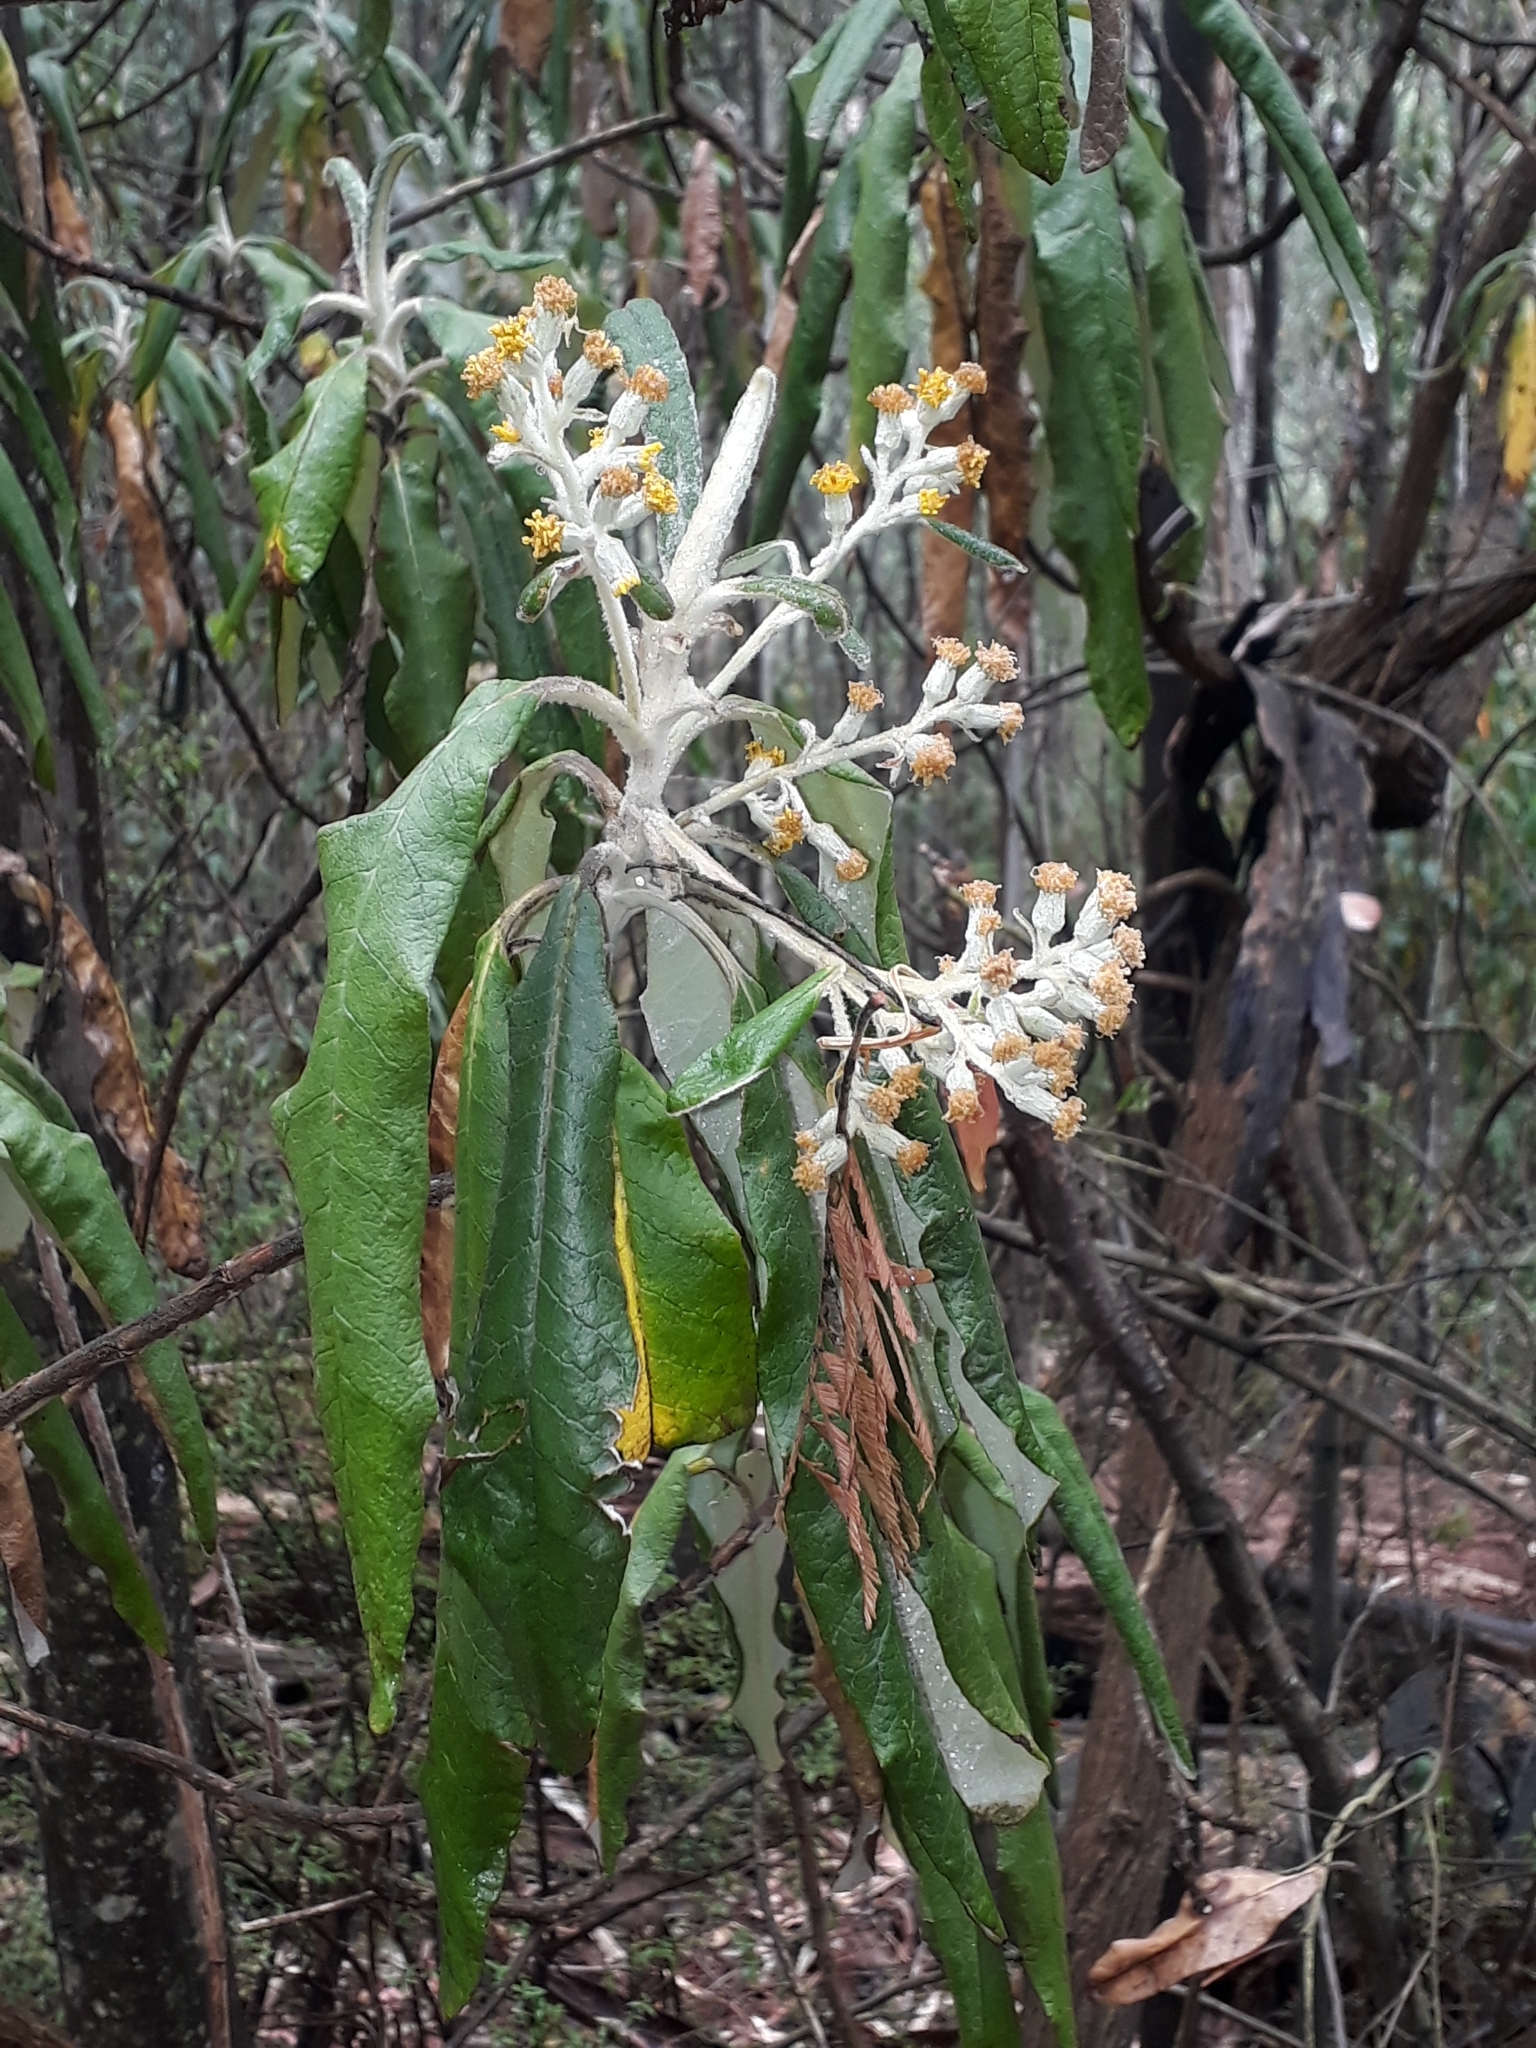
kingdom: Plantae
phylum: Tracheophyta
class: Magnoliopsida
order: Asterales
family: Asteraceae
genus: Bedfordia
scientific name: Bedfordia arborescens
